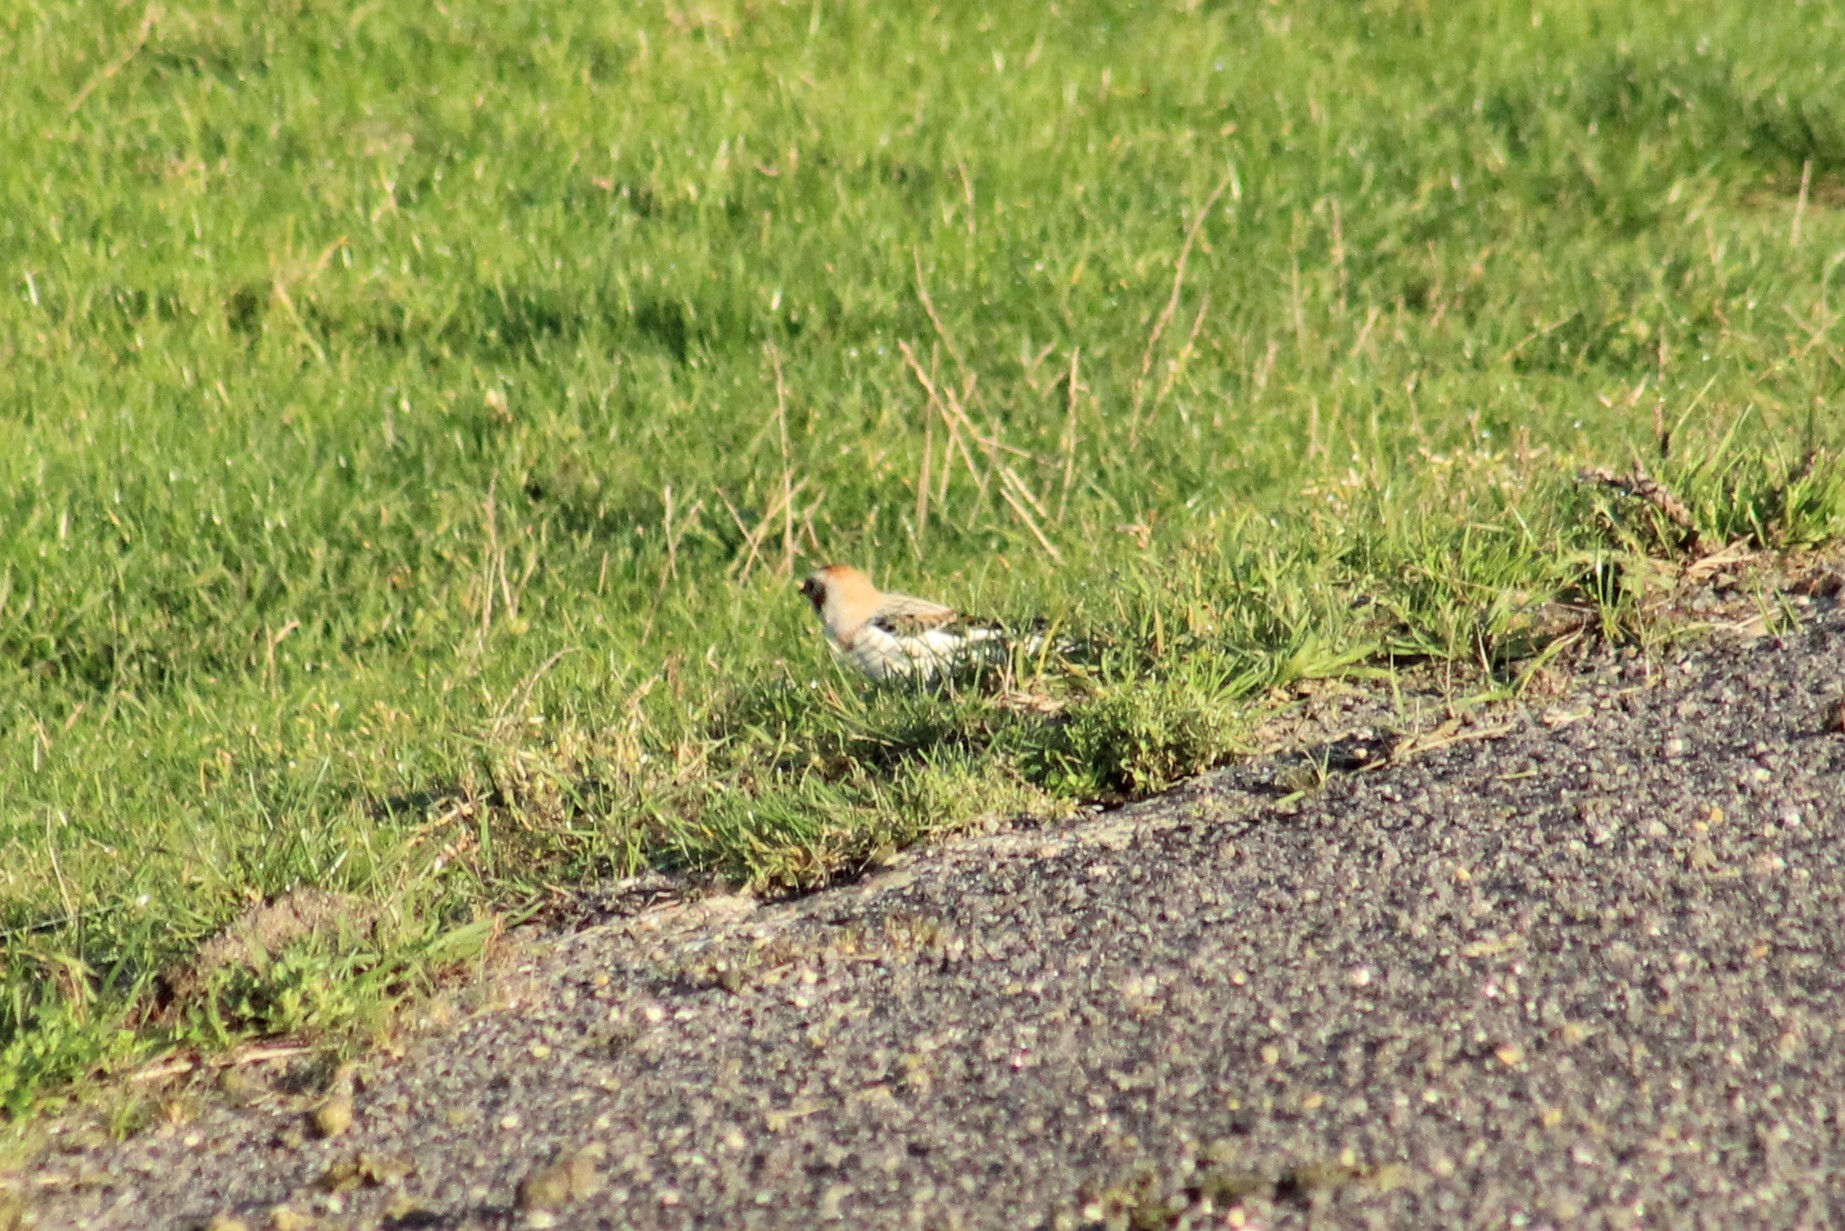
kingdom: Animalia
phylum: Chordata
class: Aves
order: Passeriformes
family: Calcariidae
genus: Plectrophenax
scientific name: Plectrophenax nivalis
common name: Snow bunting
